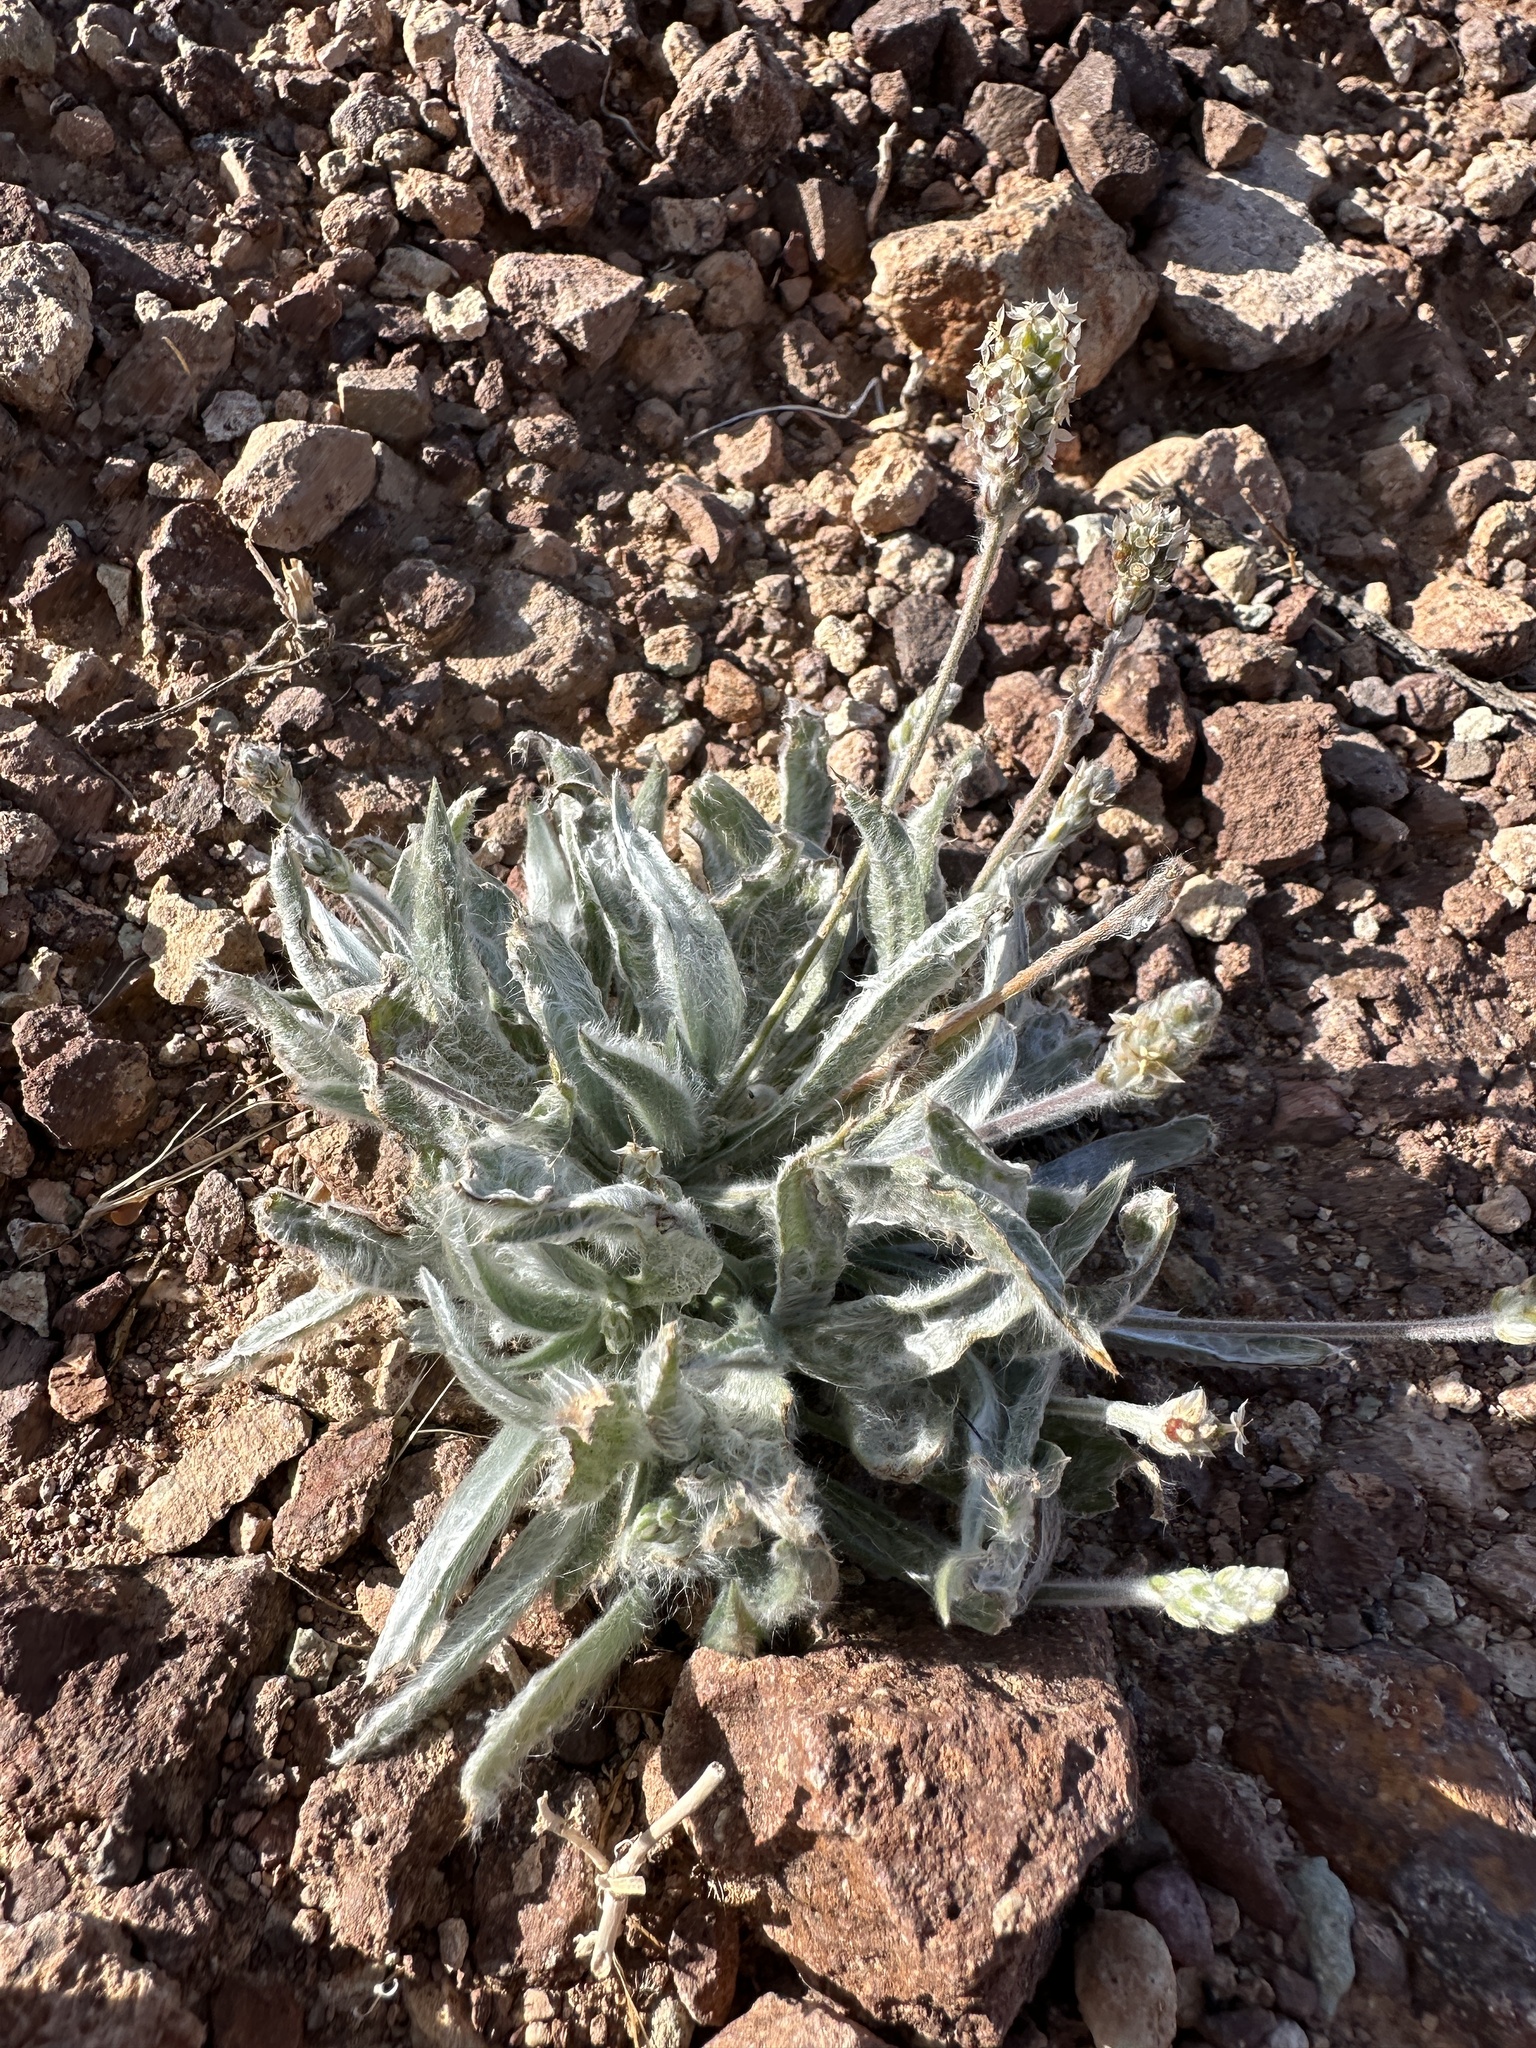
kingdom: Plantae
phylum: Tracheophyta
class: Magnoliopsida
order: Lamiales
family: Plantaginaceae
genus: Plantago
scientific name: Plantago ovata
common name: Blond plantain
